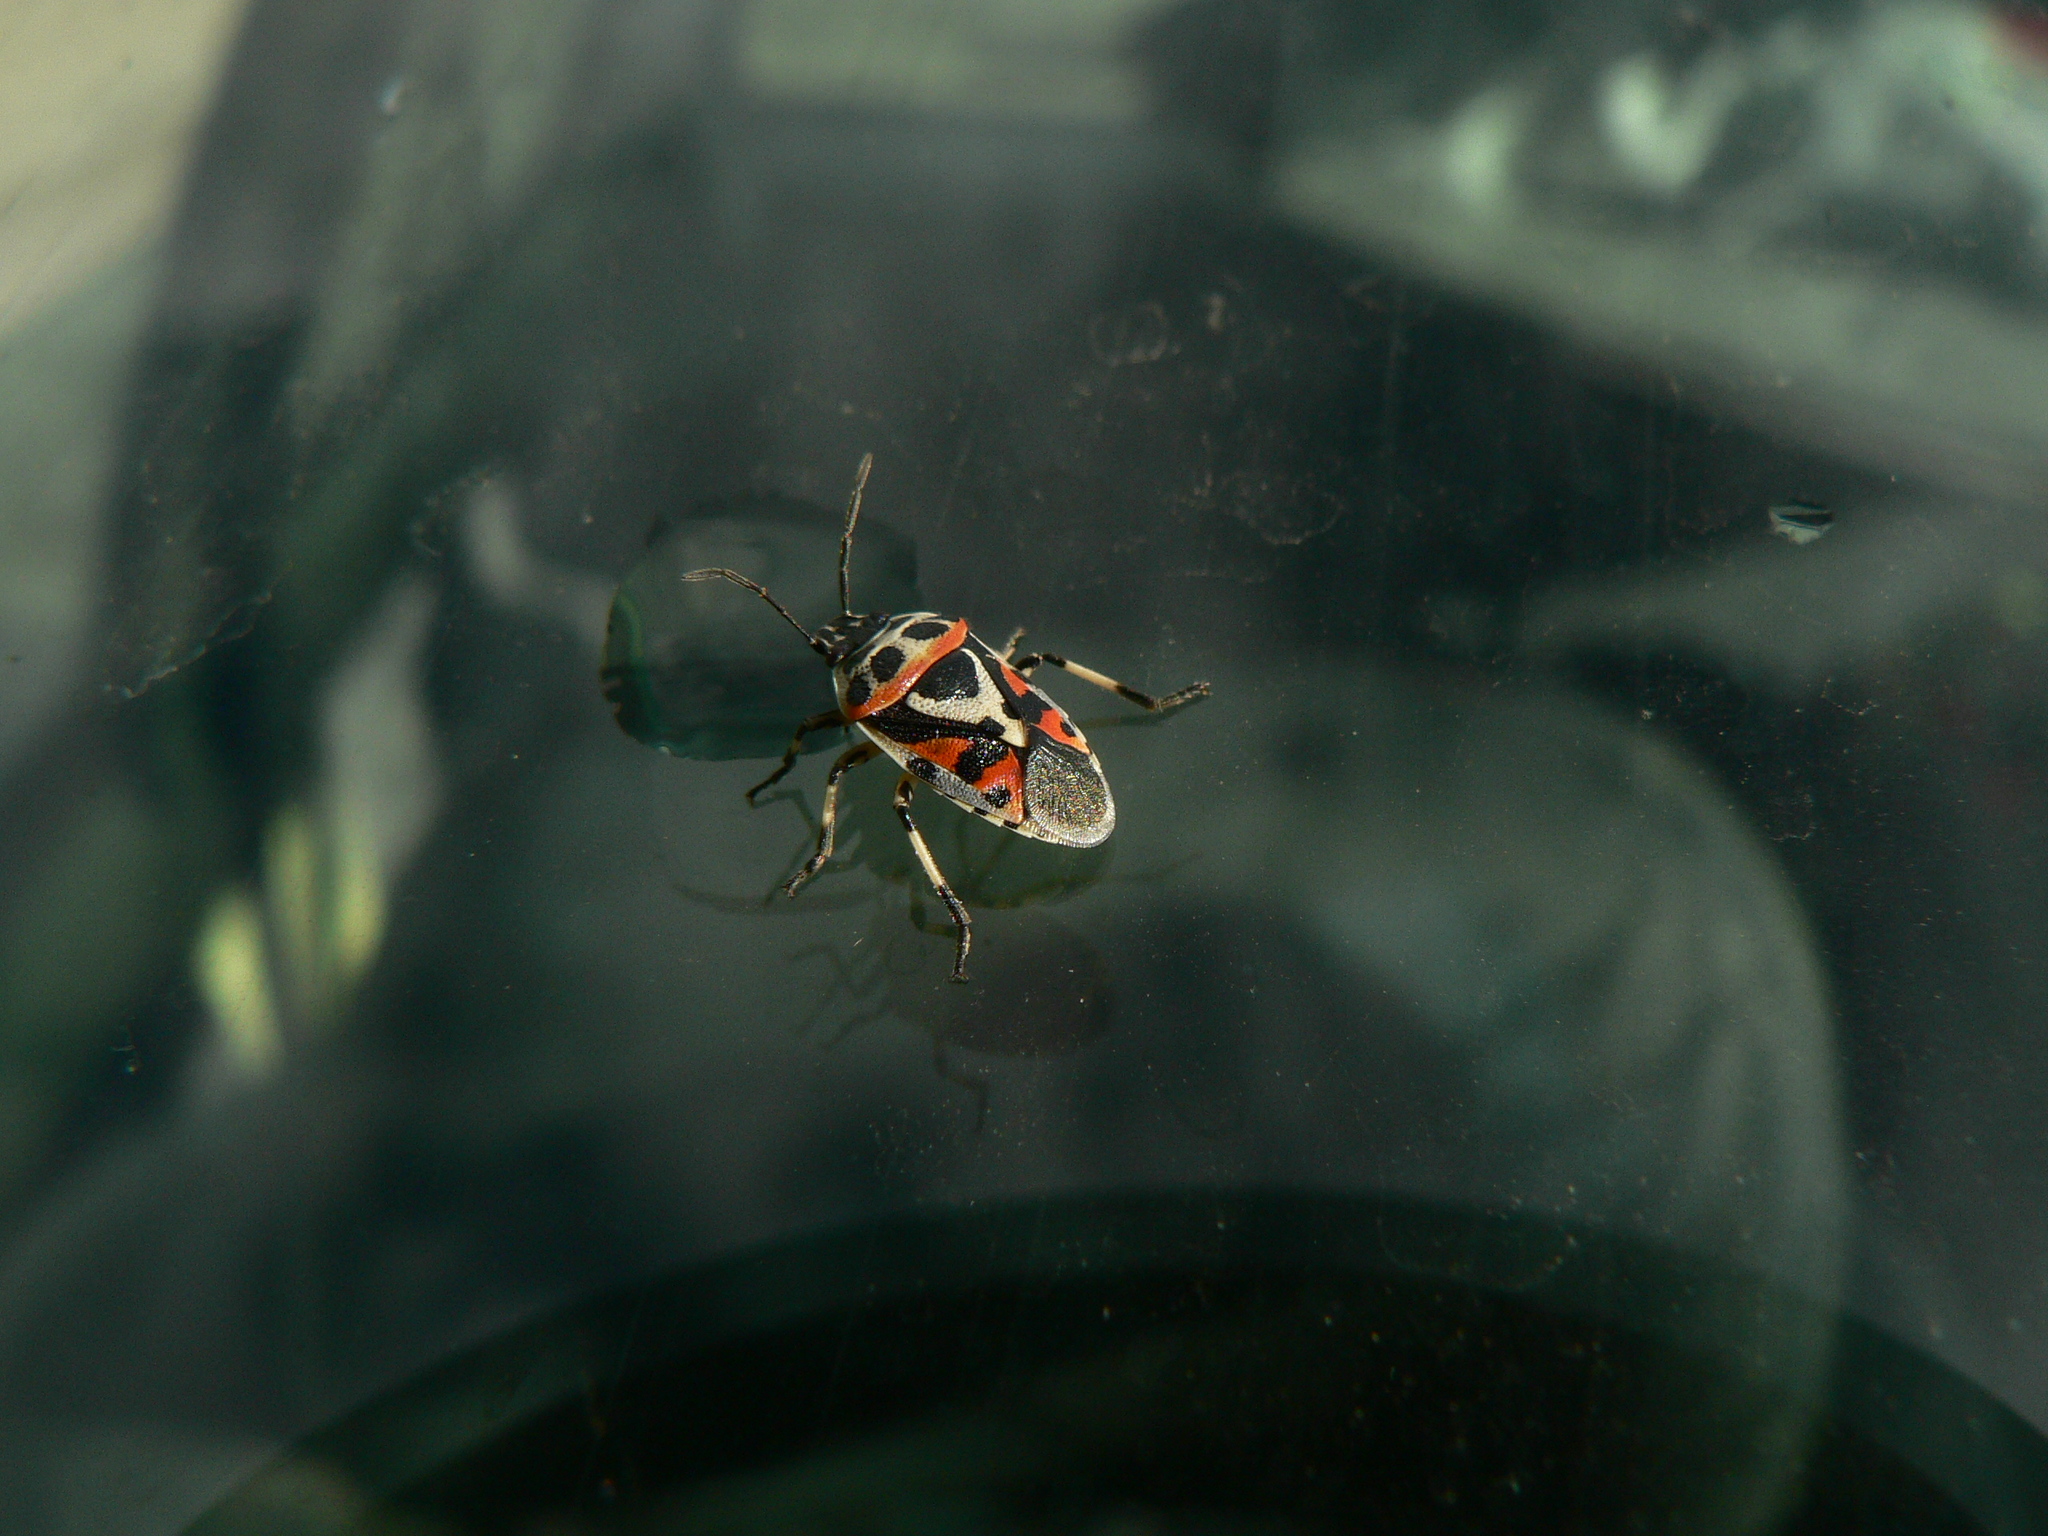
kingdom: Animalia
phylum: Arthropoda
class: Insecta
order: Hemiptera
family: Pentatomidae
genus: Eurydema
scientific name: Eurydema ornata
